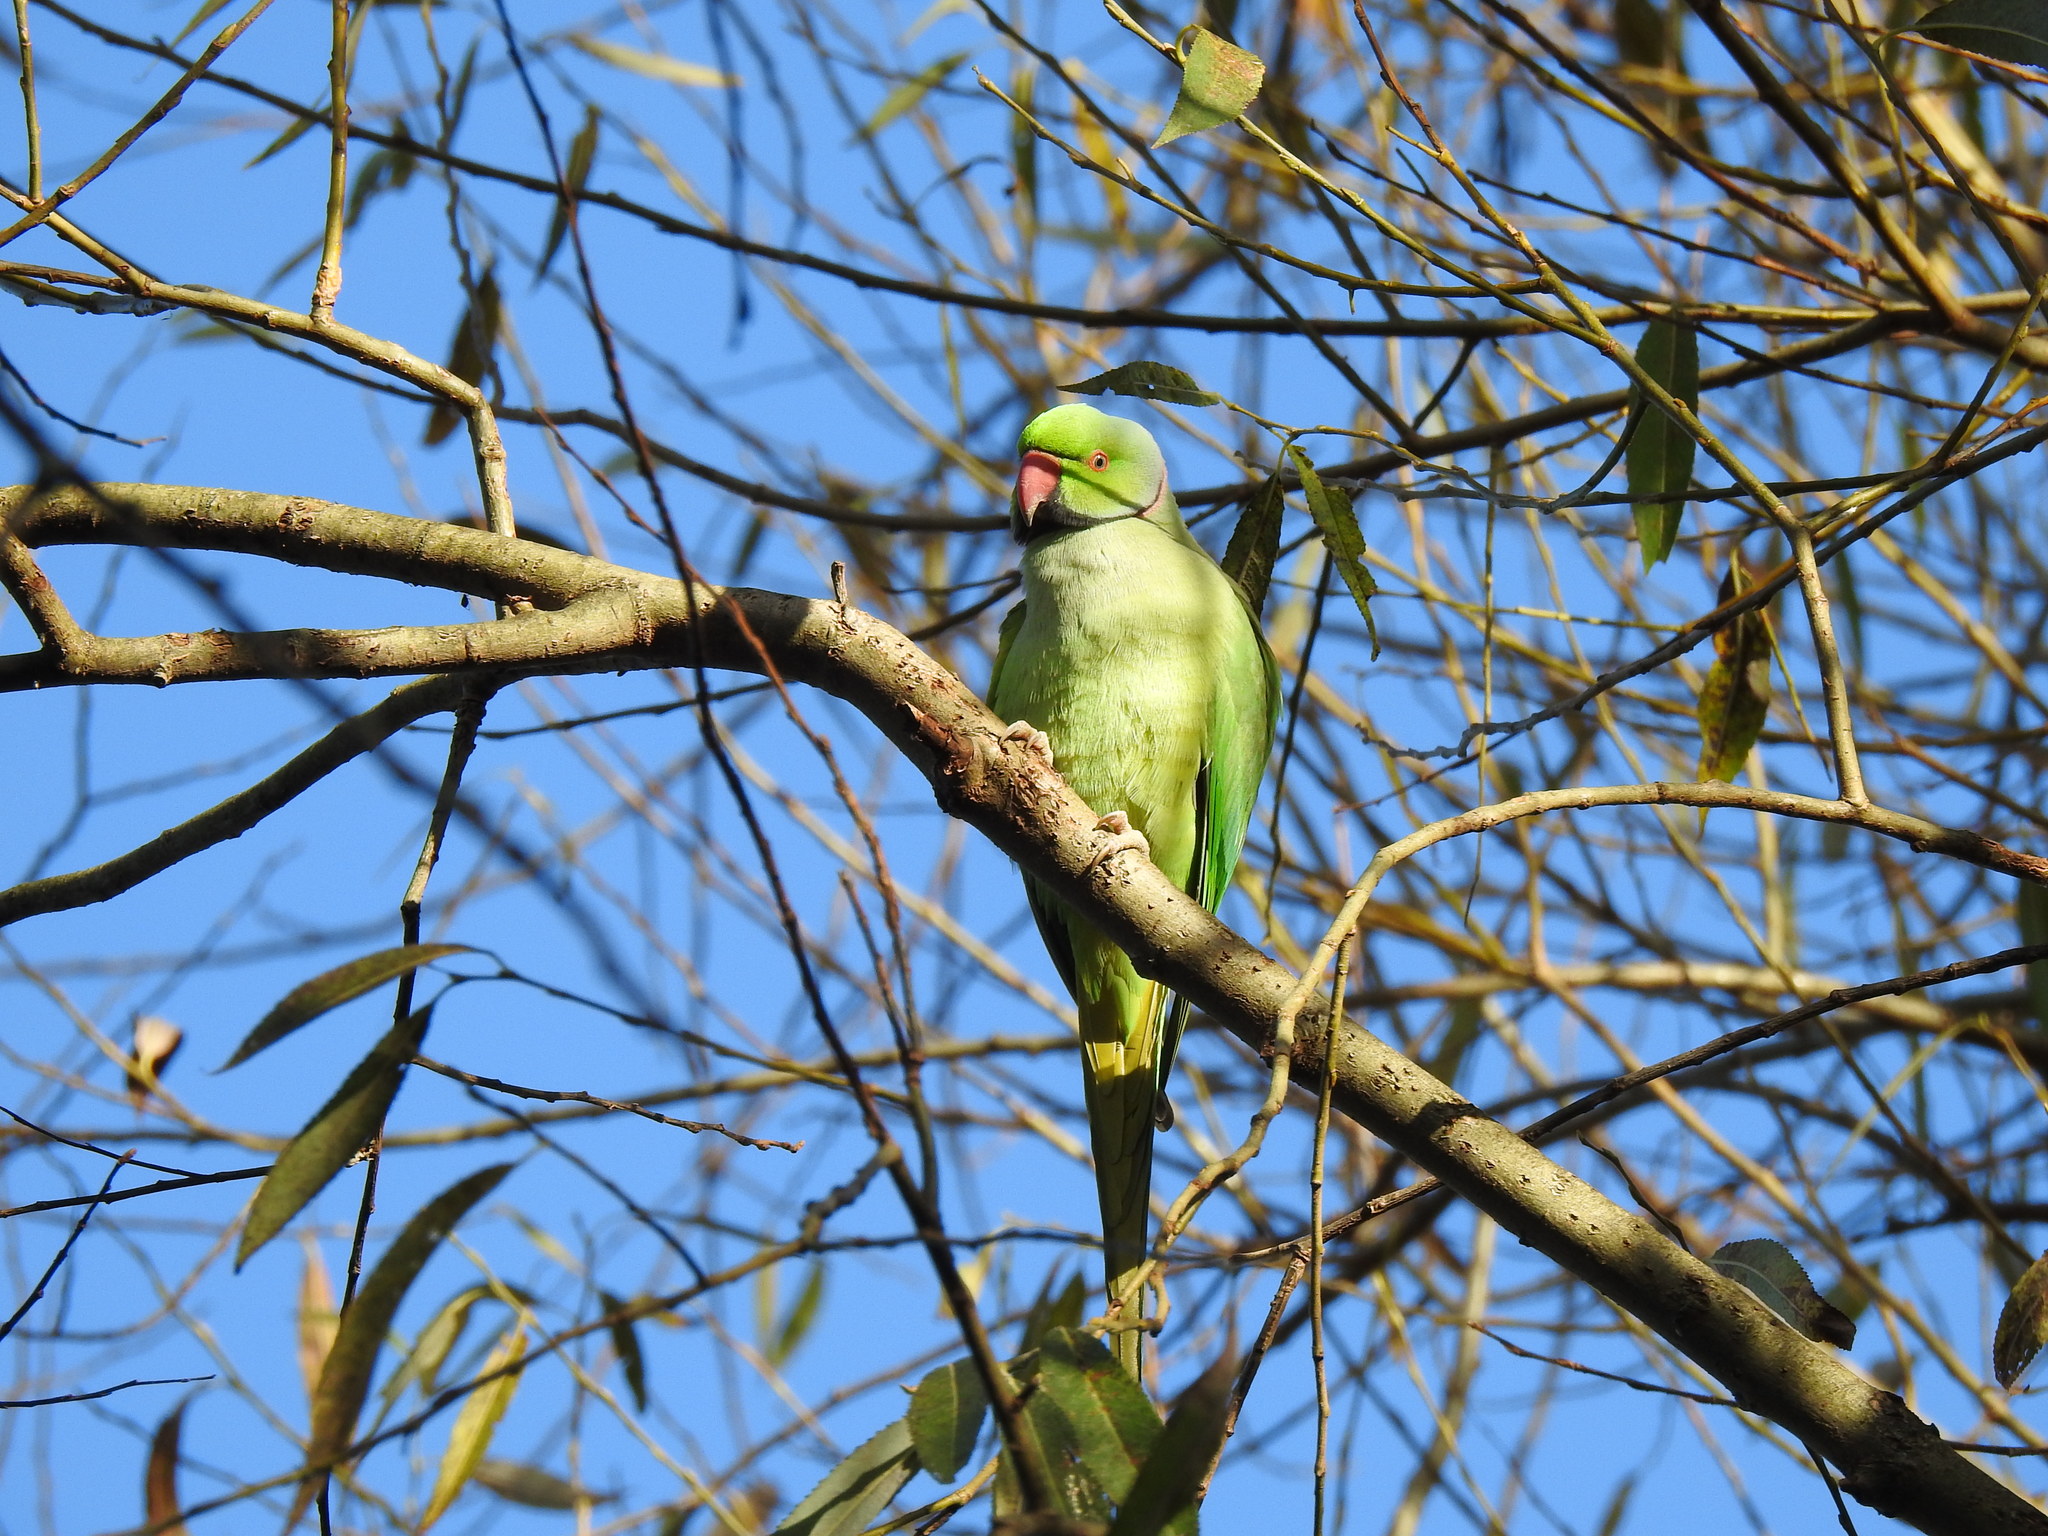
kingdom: Animalia
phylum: Chordata
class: Aves
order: Psittaciformes
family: Psittacidae
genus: Psittacula
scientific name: Psittacula krameri
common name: Rose-ringed parakeet
